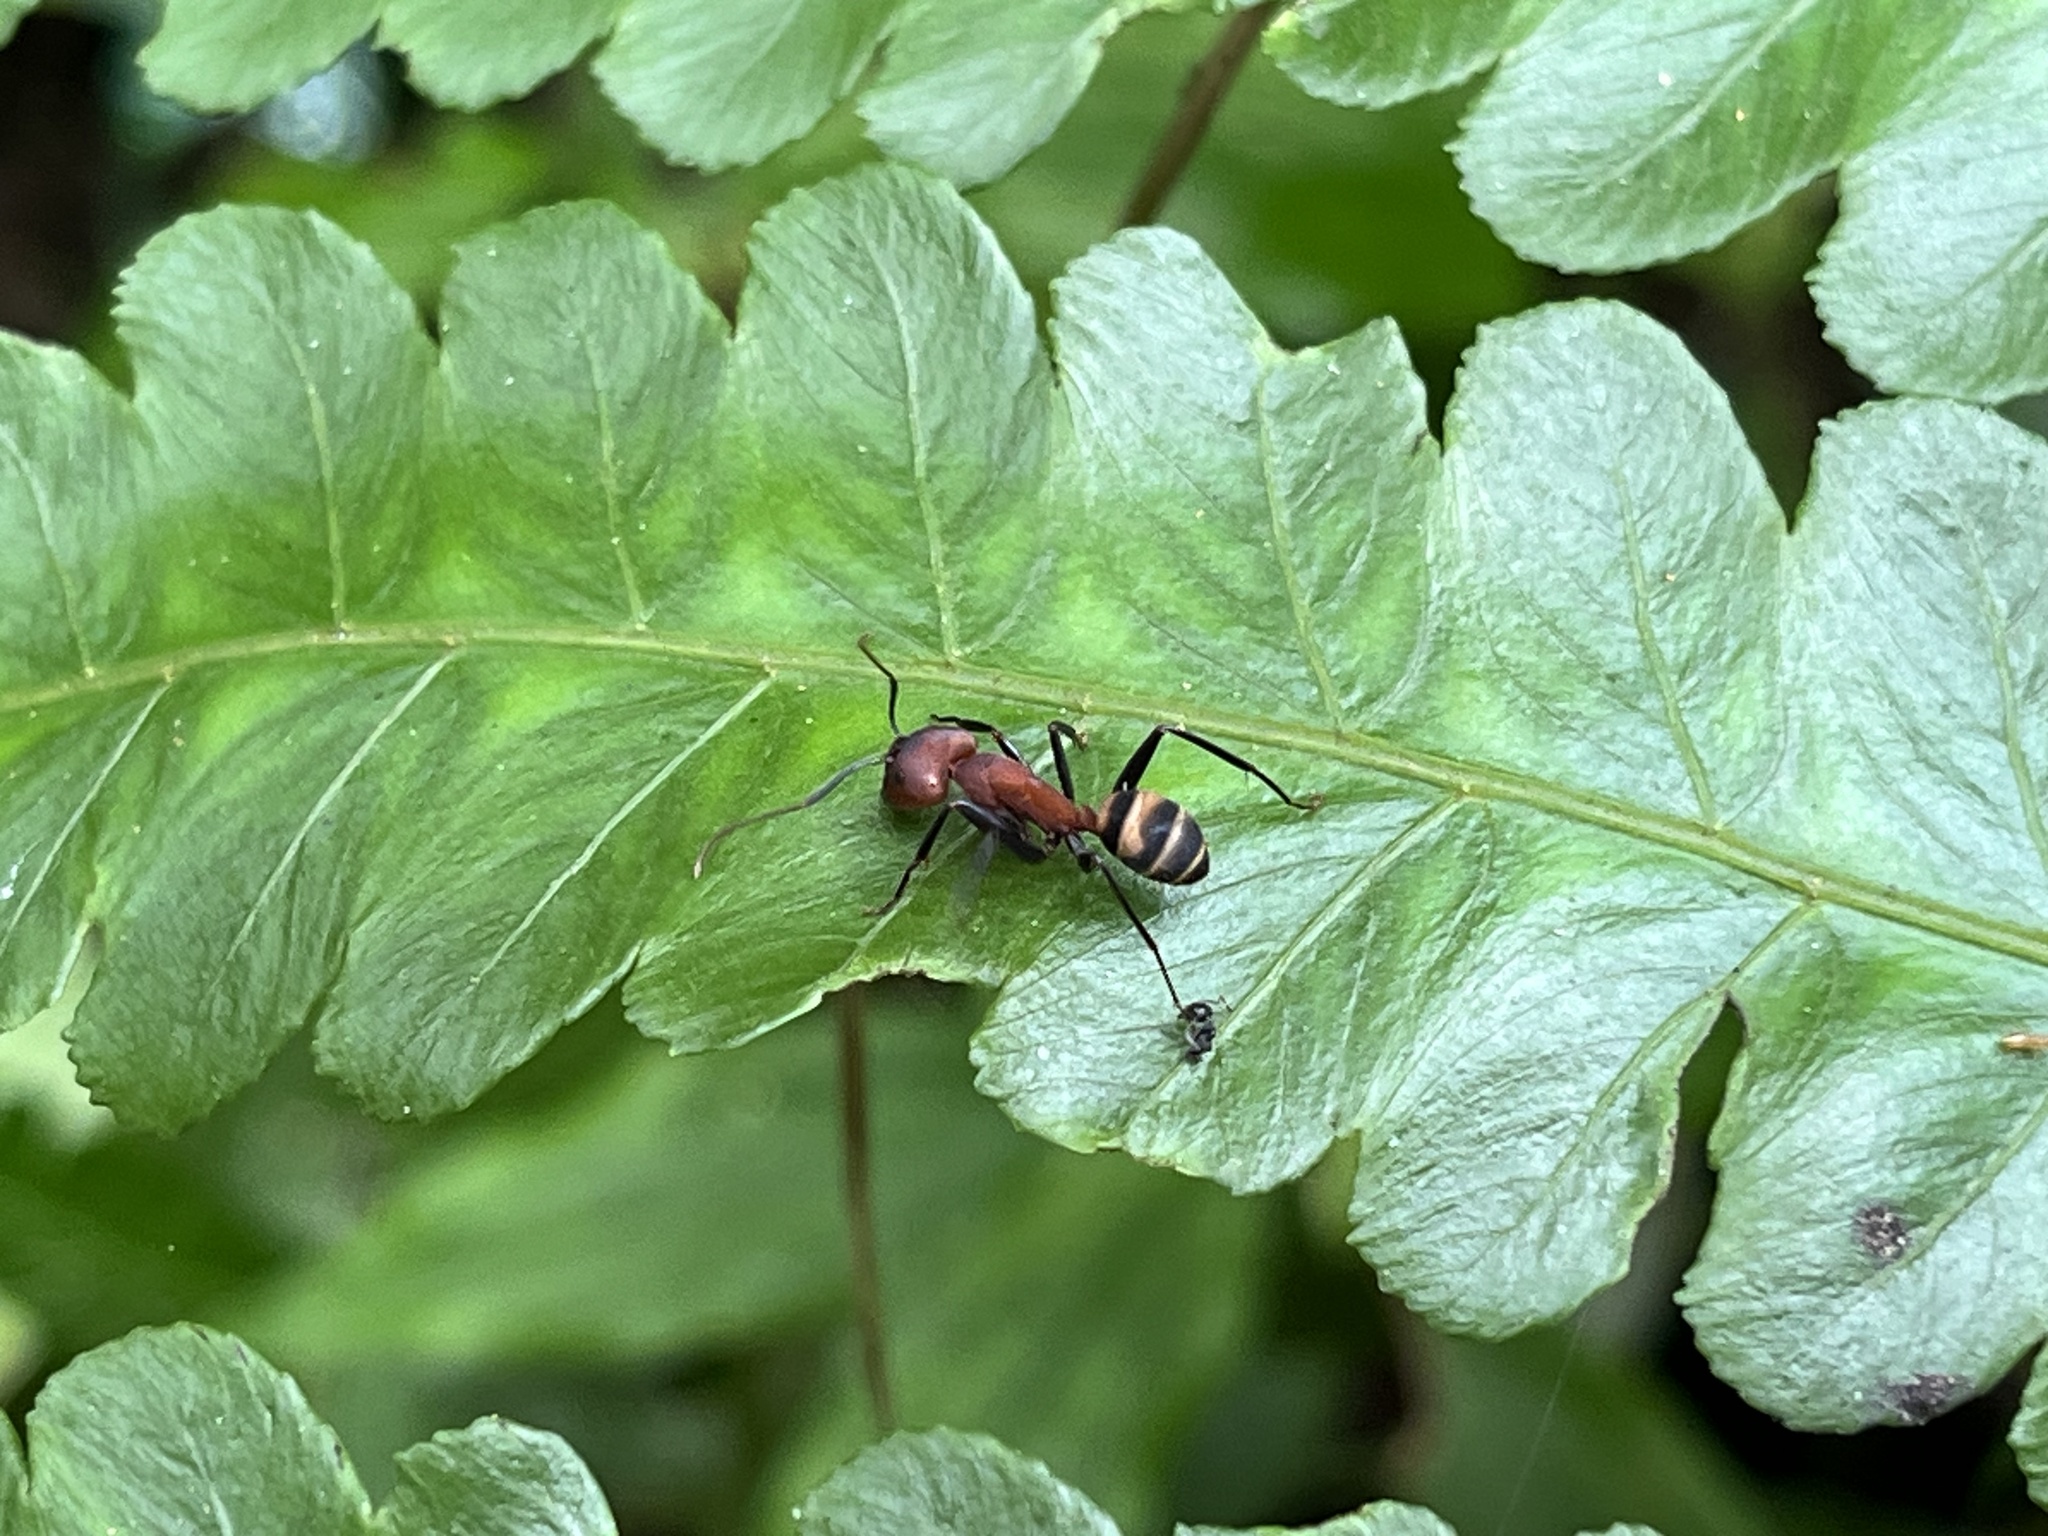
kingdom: Animalia
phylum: Arthropoda
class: Insecta
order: Hymenoptera
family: Formicidae
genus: Camponotus
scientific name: Camponotus habereri
